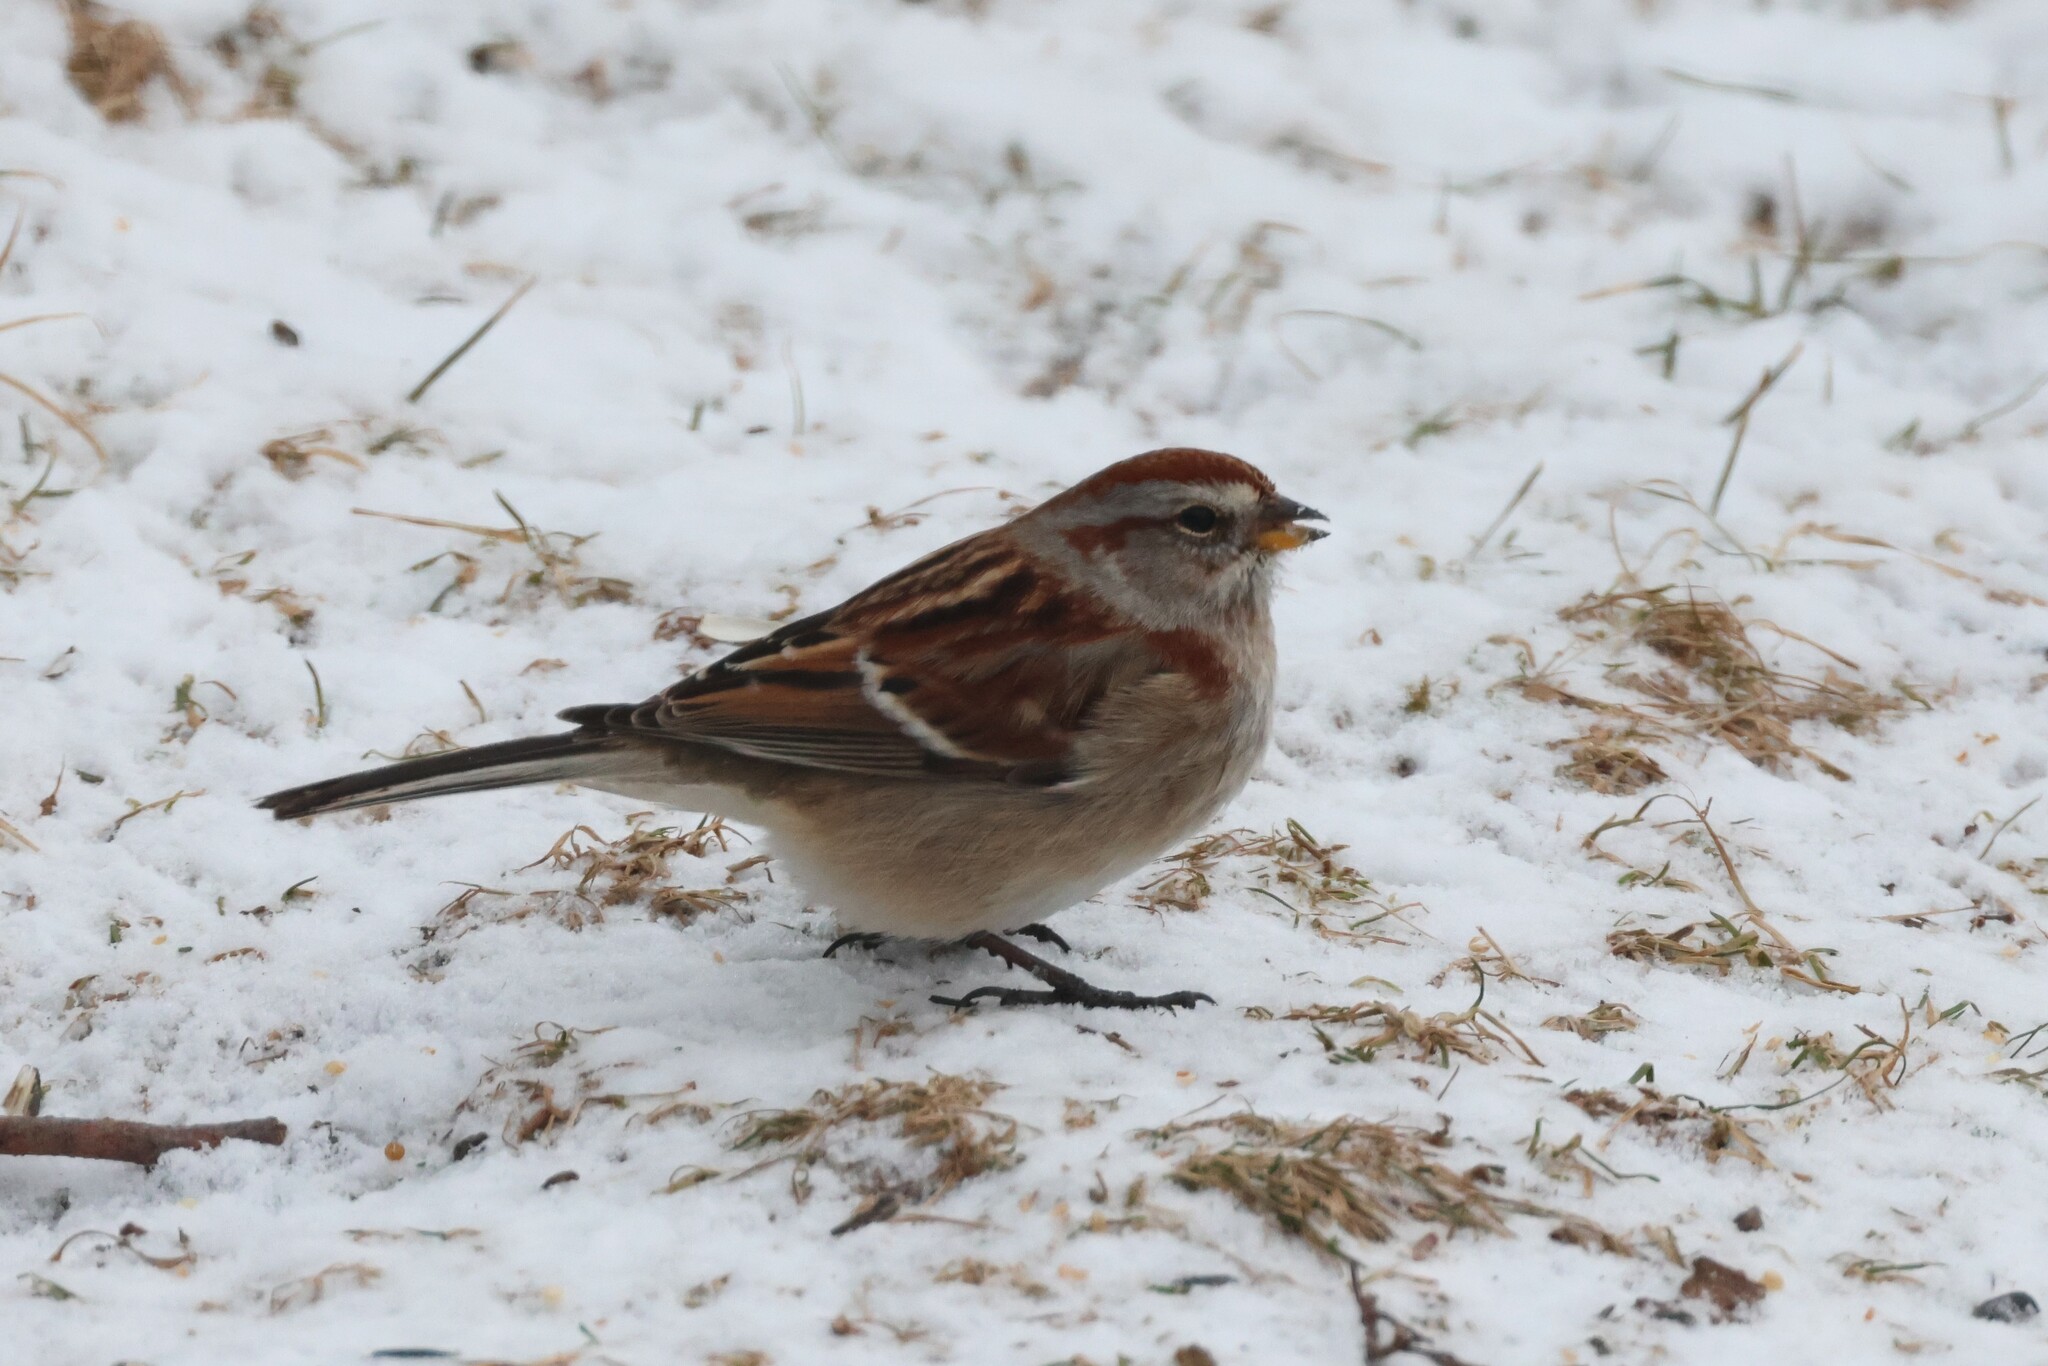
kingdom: Animalia
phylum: Chordata
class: Aves
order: Passeriformes
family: Passerellidae
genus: Spizelloides
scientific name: Spizelloides arborea
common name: American tree sparrow
